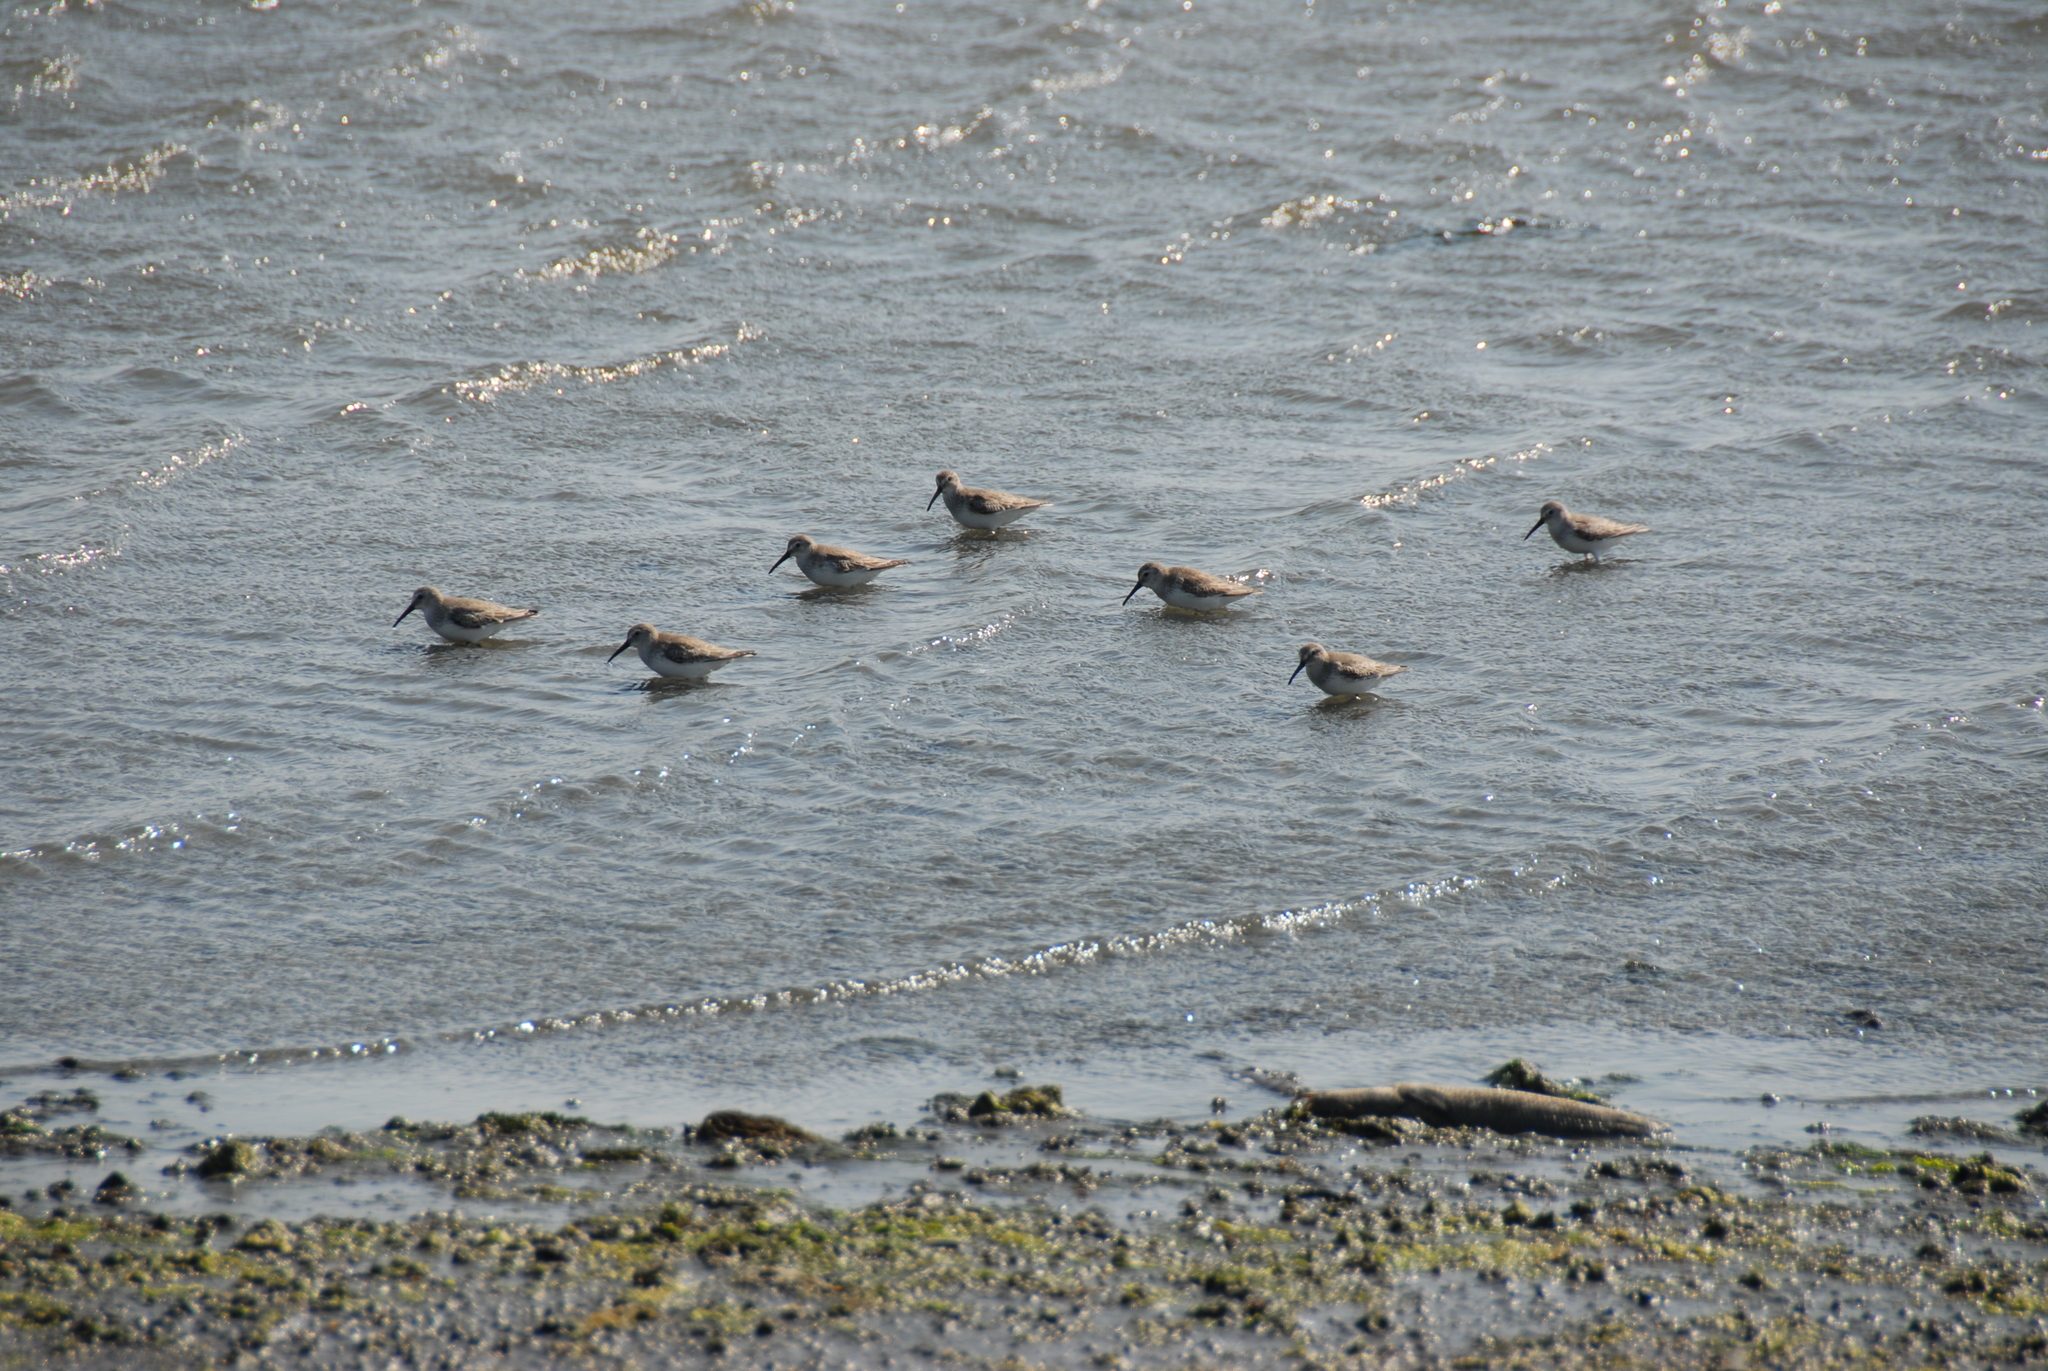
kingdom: Animalia
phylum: Chordata
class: Aves
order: Charadriiformes
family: Scolopacidae
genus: Calidris
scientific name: Calidris alpina
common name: Dunlin
